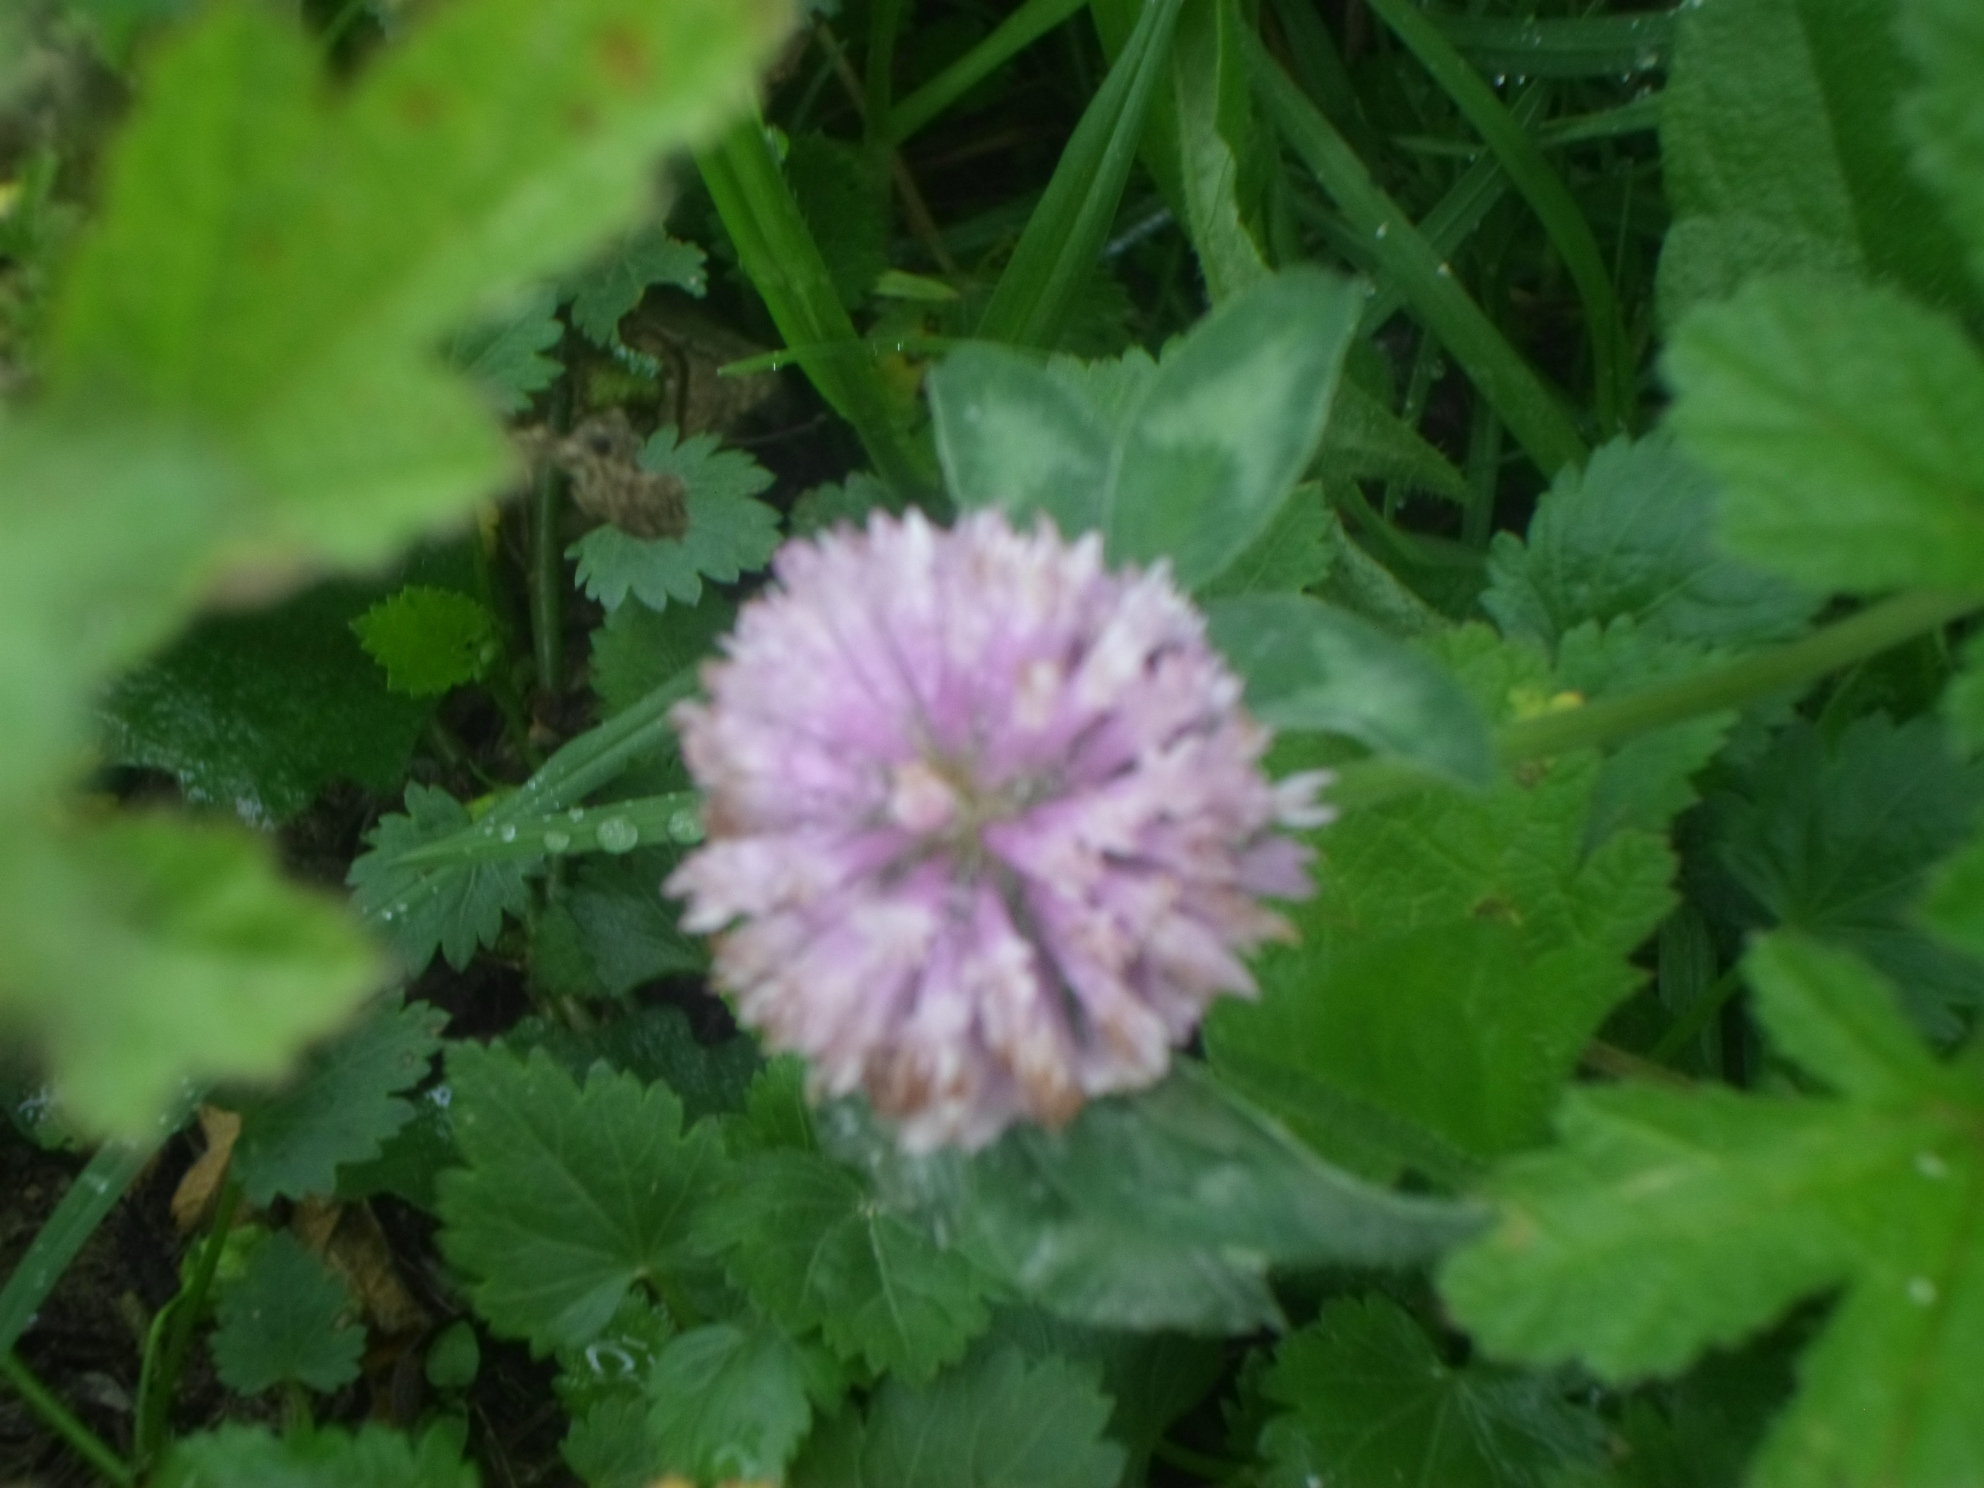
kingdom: Plantae
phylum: Tracheophyta
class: Magnoliopsida
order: Fabales
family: Fabaceae
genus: Trifolium
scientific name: Trifolium pratense
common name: Red clover
